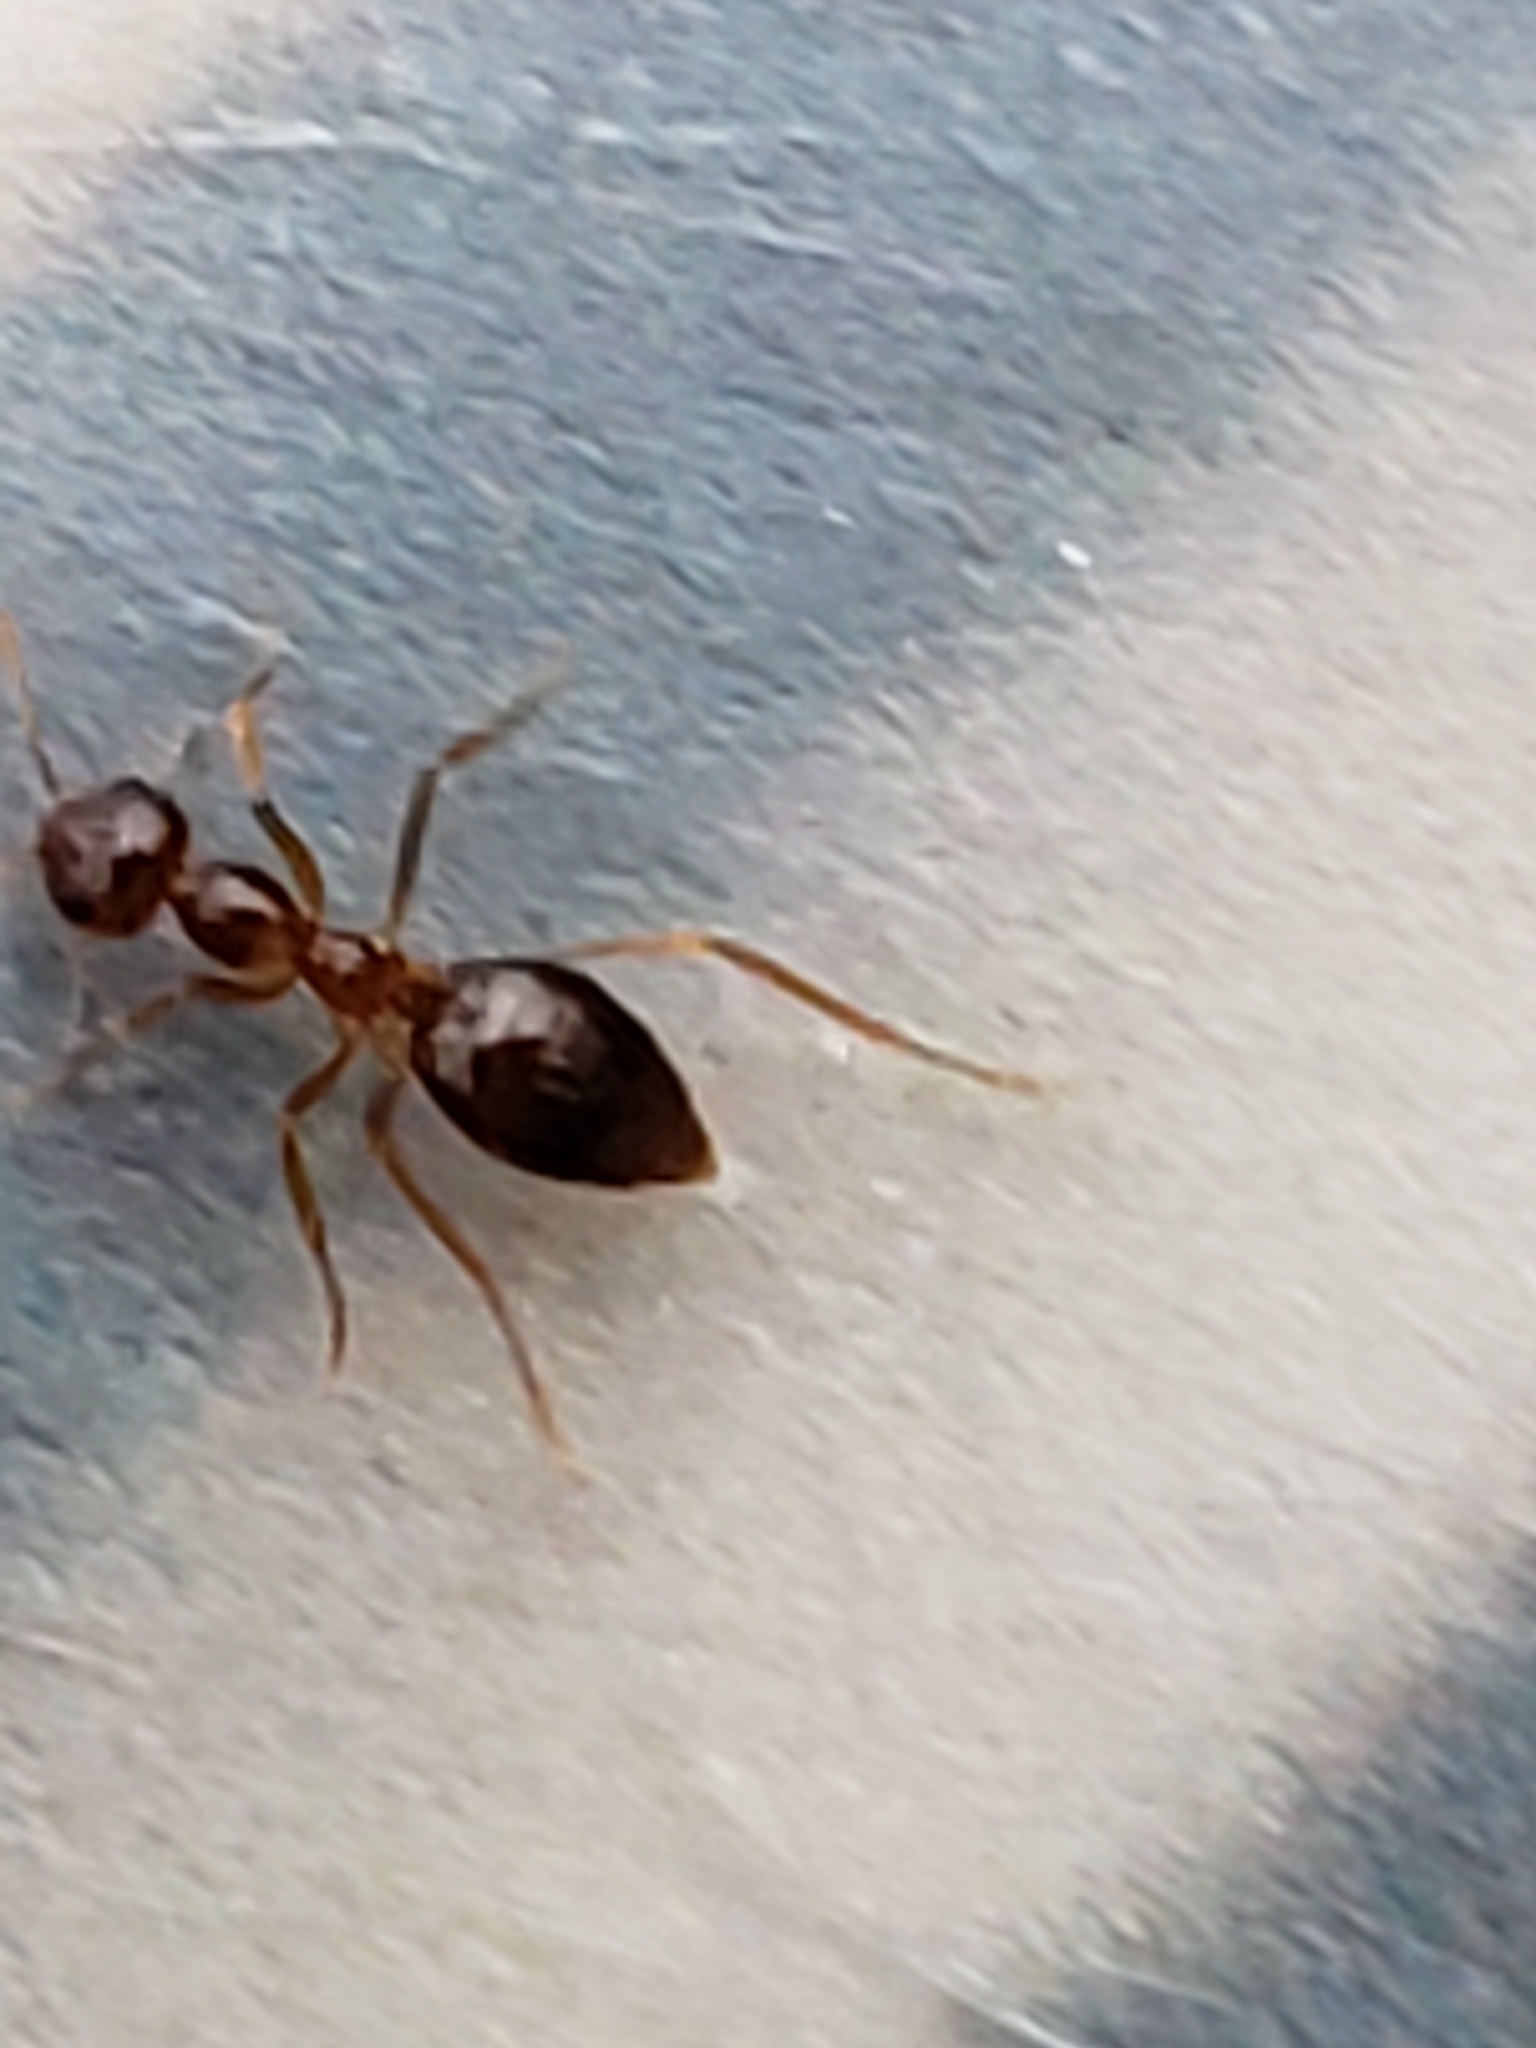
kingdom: Animalia
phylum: Arthropoda
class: Insecta
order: Hymenoptera
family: Formicidae
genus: Prenolepis
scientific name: Prenolepis imparis
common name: Small honey ant
